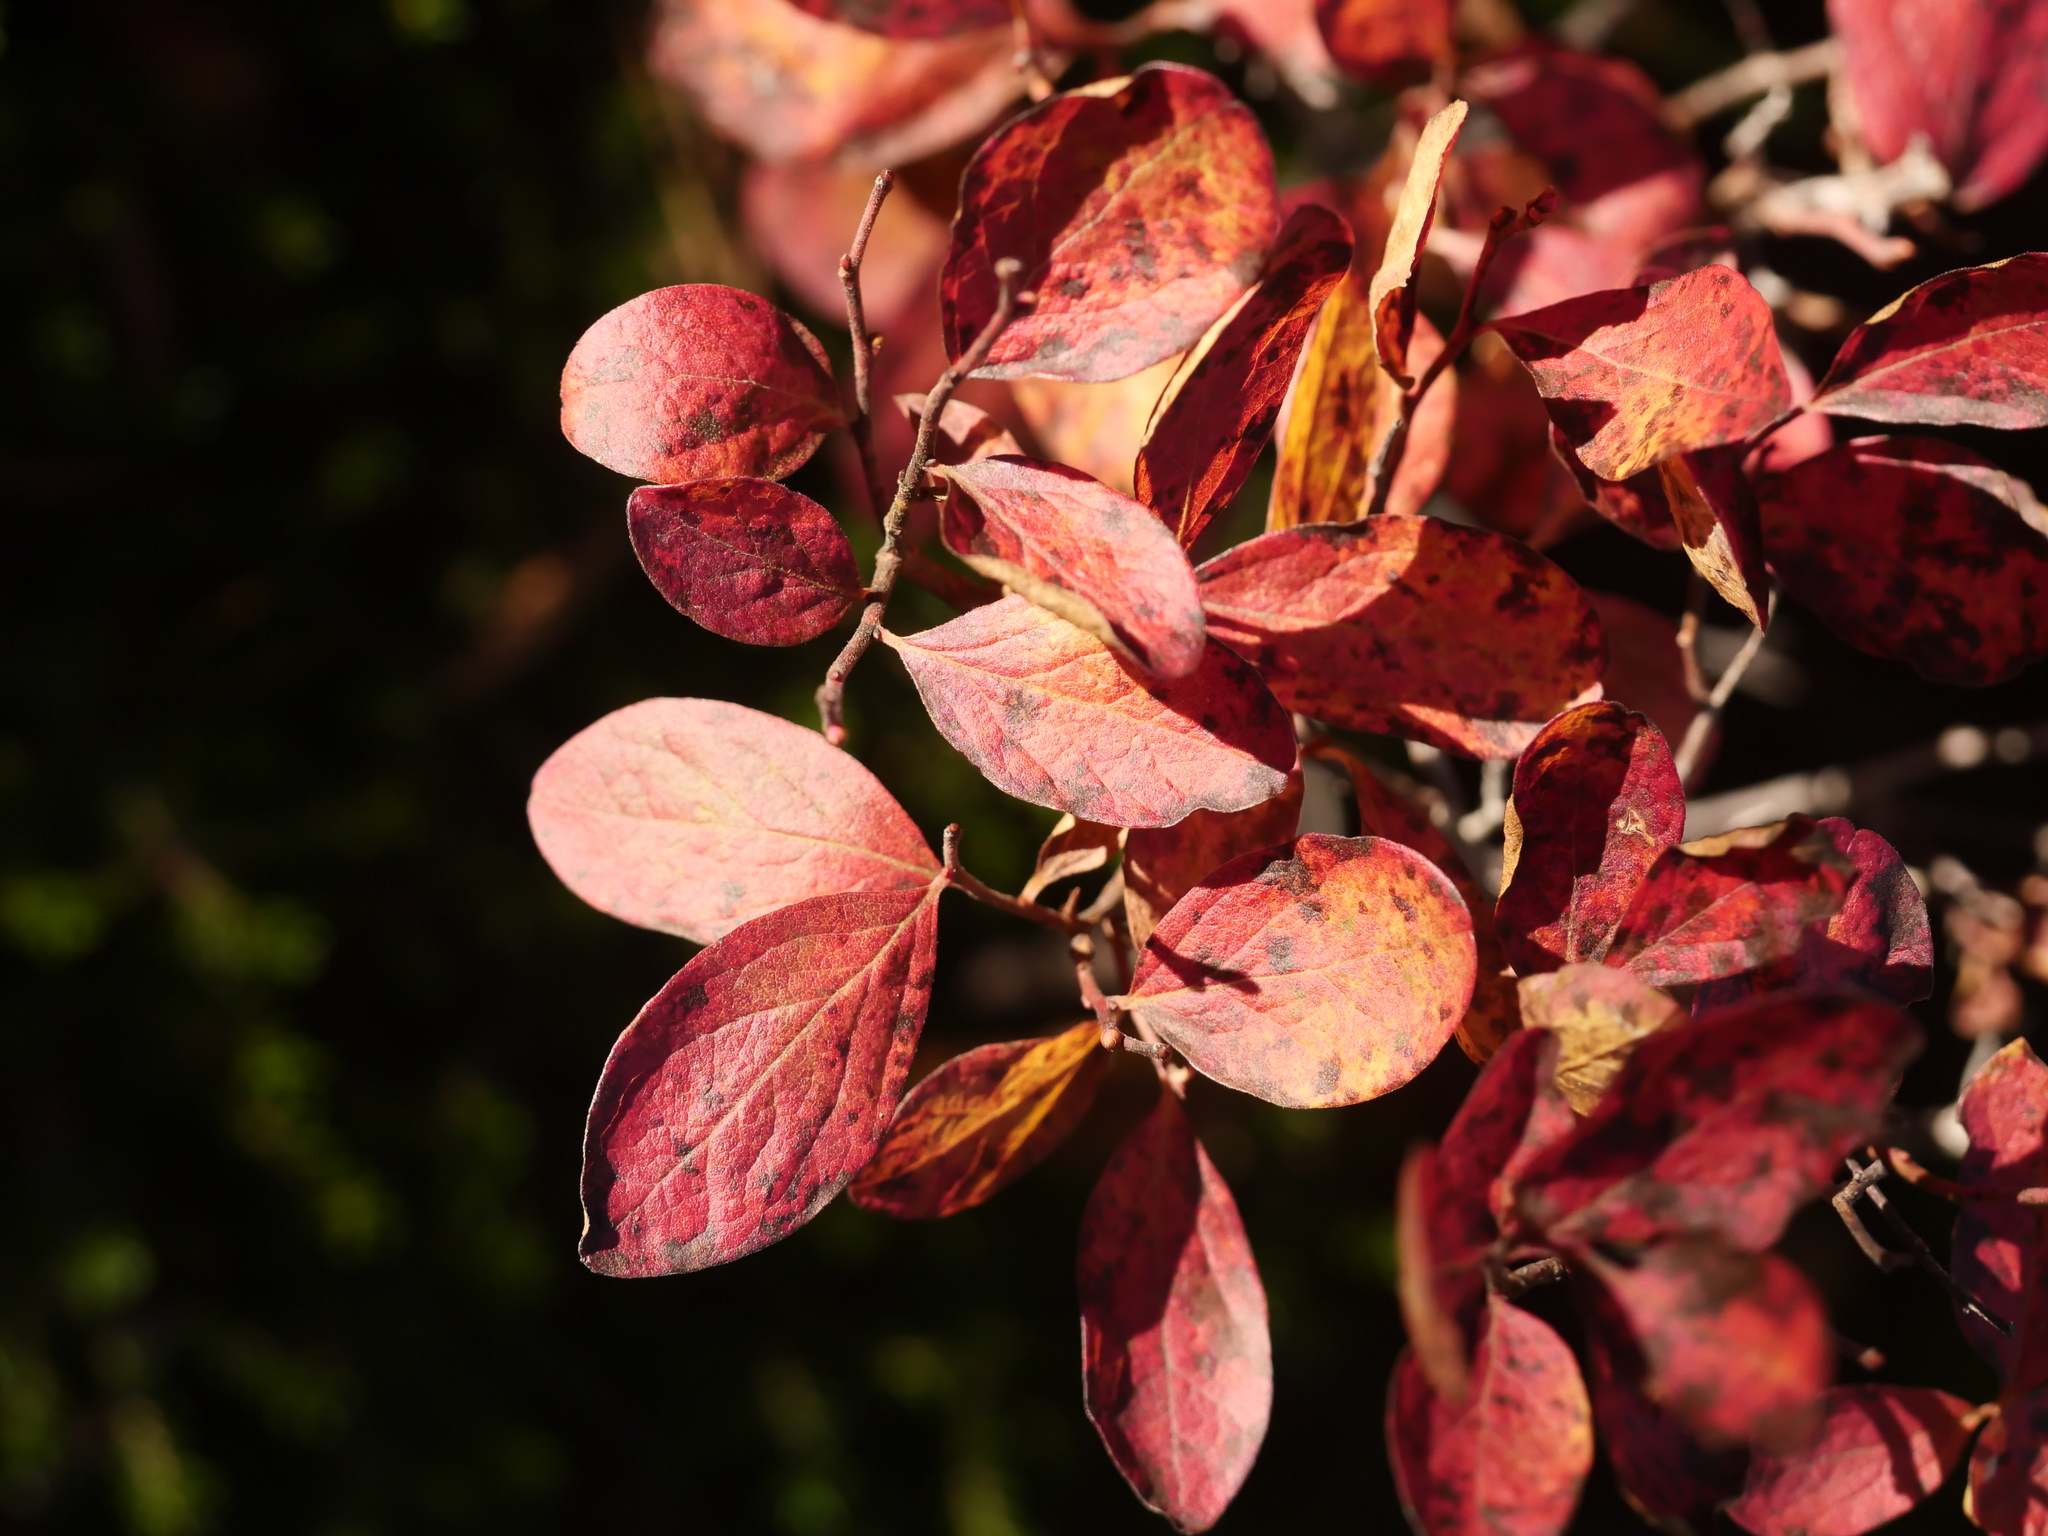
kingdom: Plantae
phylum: Tracheophyta
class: Magnoliopsida
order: Ericales
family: Ericaceae
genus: Gaylussacia
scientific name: Gaylussacia baccata
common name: Black huckleberry
